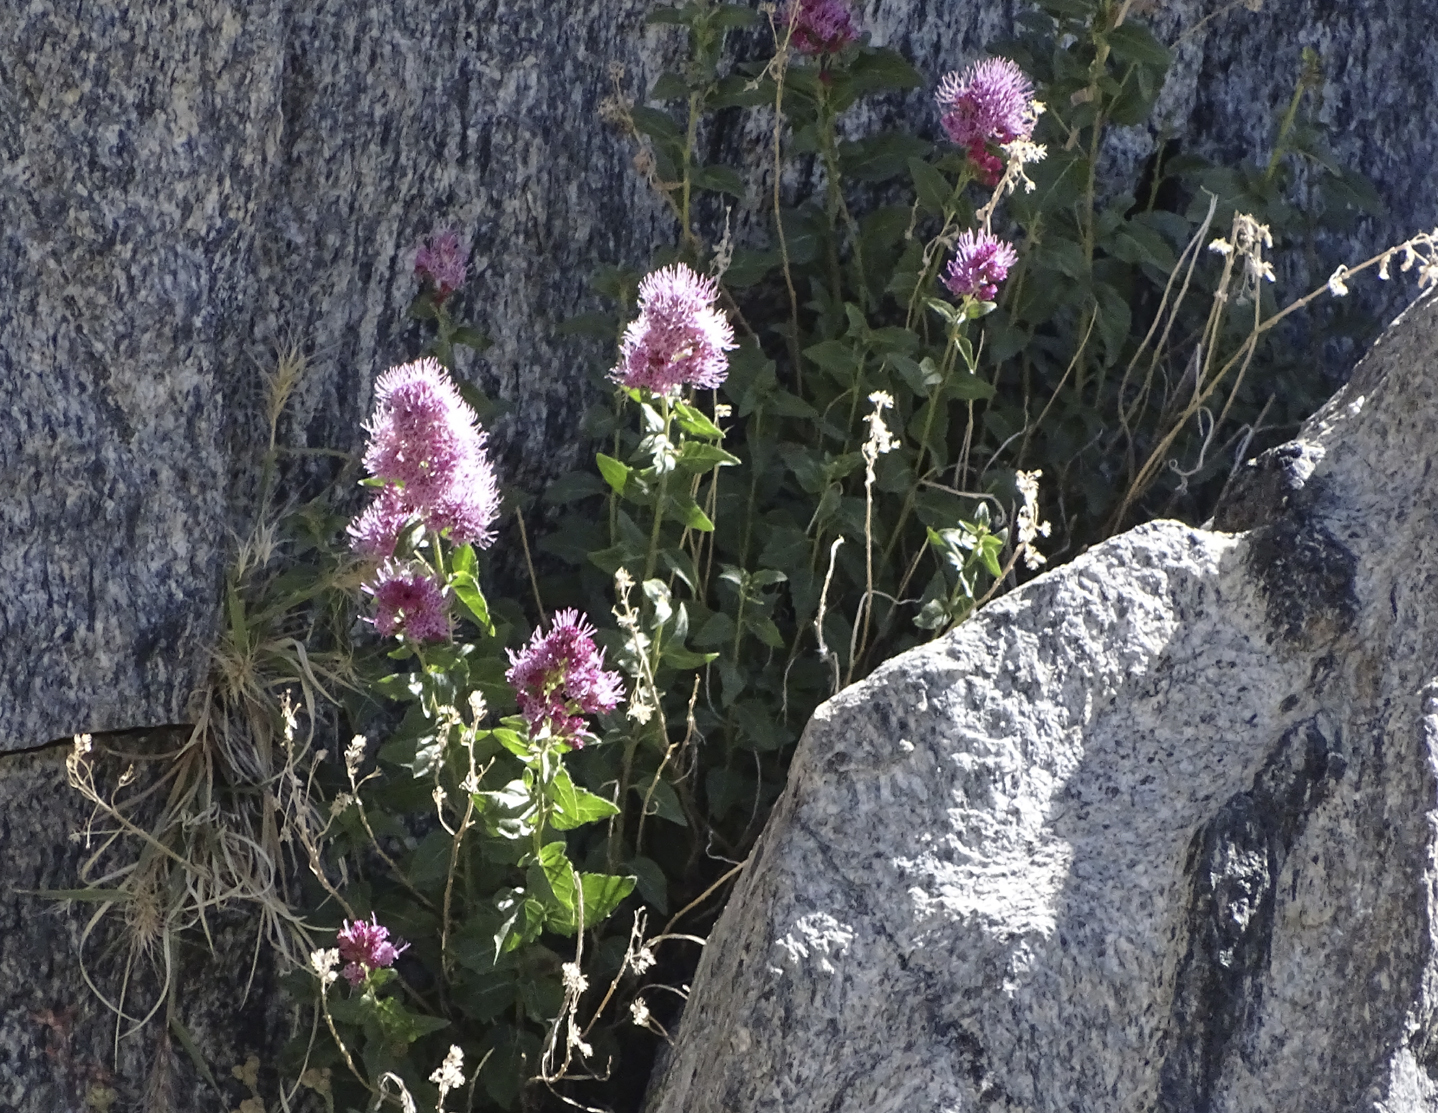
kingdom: Plantae
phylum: Tracheophyta
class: Magnoliopsida
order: Asterales
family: Asteraceae
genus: Ageratina
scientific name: Ageratina occidentalis
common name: Western snakeroot
